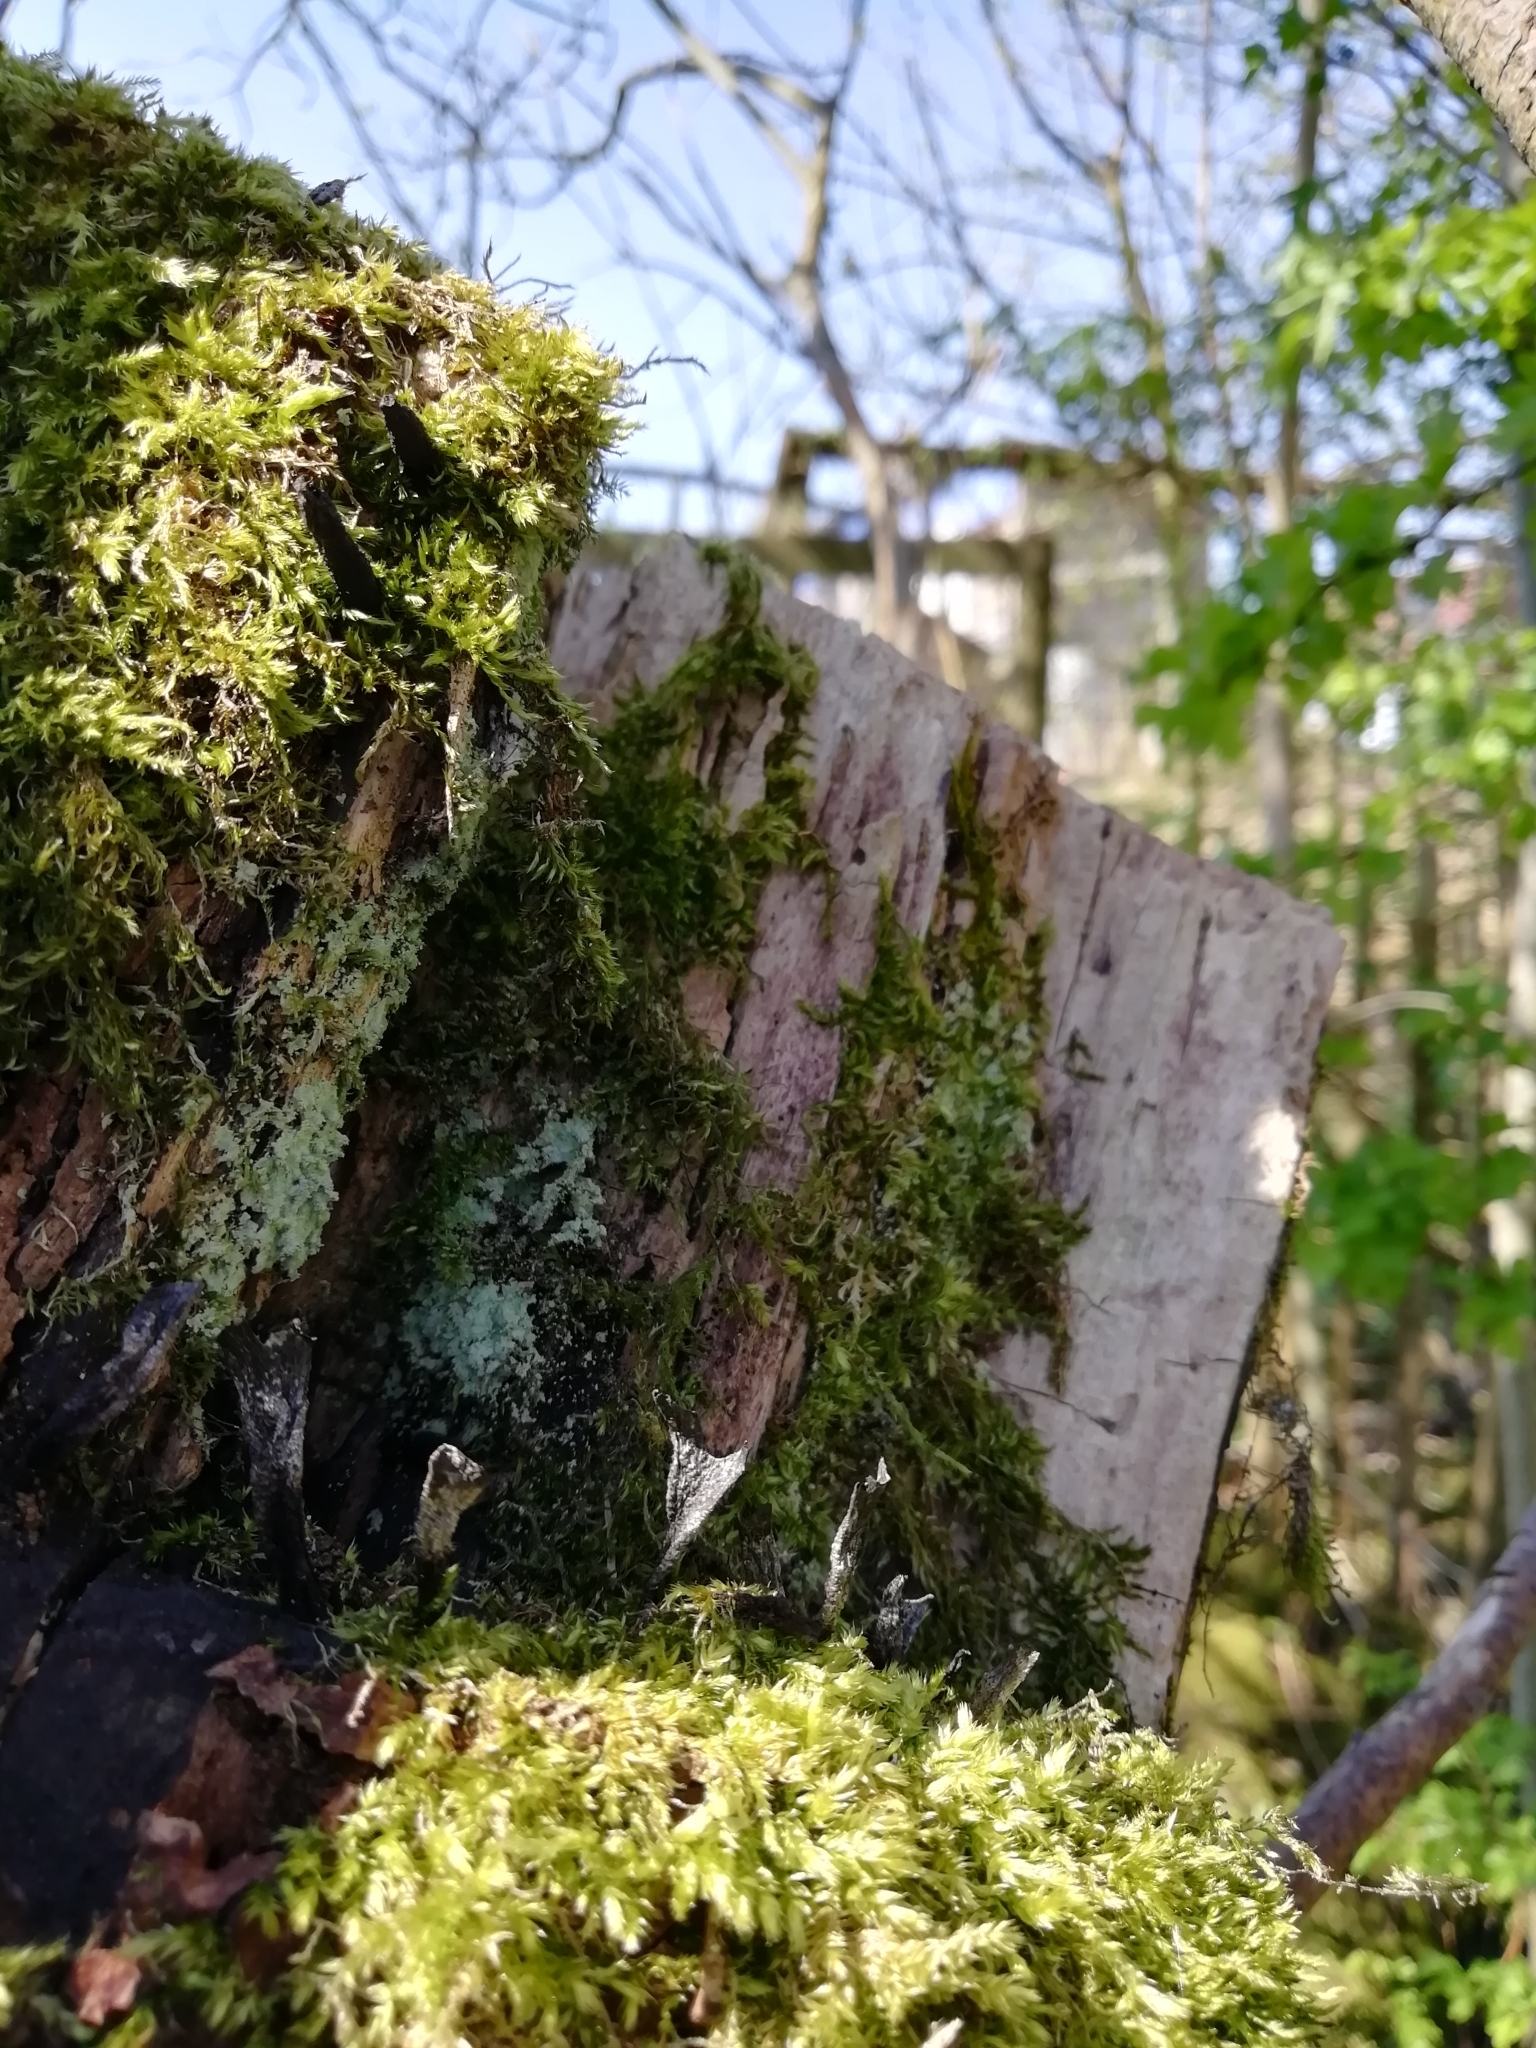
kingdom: Fungi
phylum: Ascomycota
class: Sordariomycetes
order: Xylariales
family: Xylariaceae
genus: Xylaria
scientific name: Xylaria hypoxylon
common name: Candle-snuff fungus
